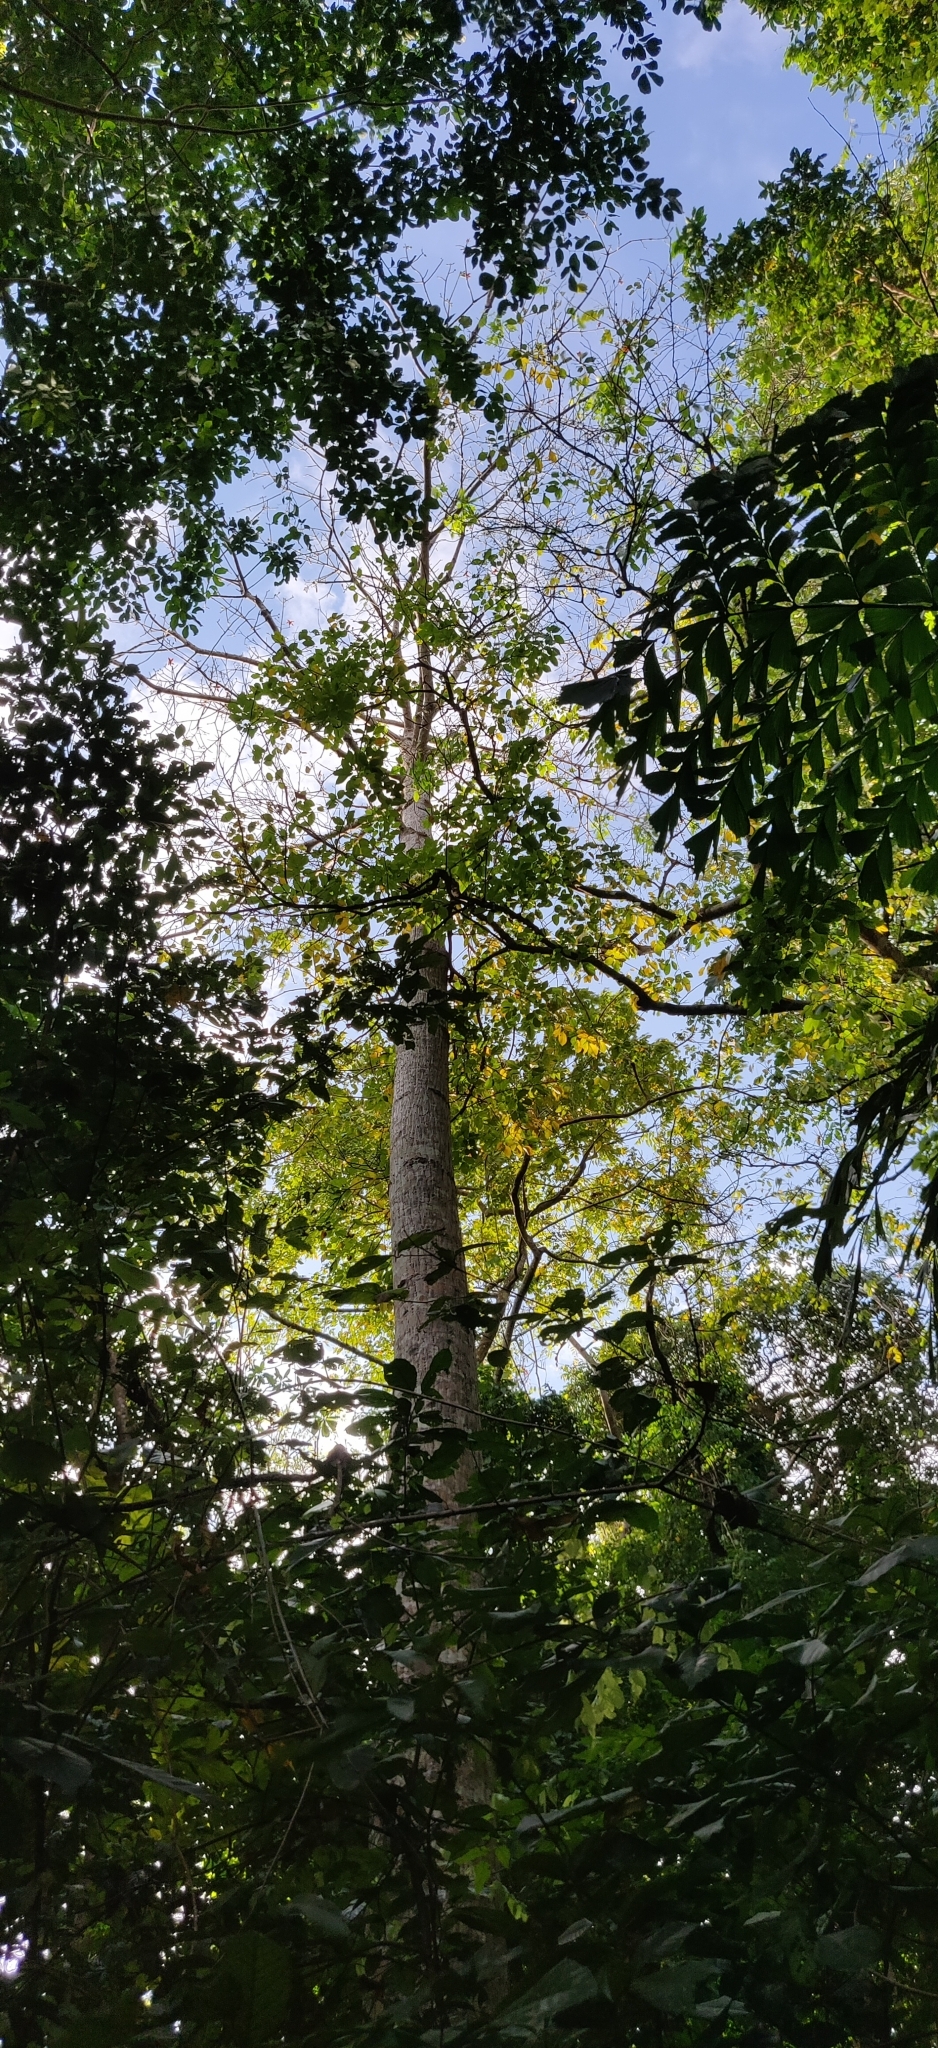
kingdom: Plantae
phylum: Tracheophyta
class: Magnoliopsida
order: Malvales
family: Malvaceae
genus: Bombax
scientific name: Bombax insigne
